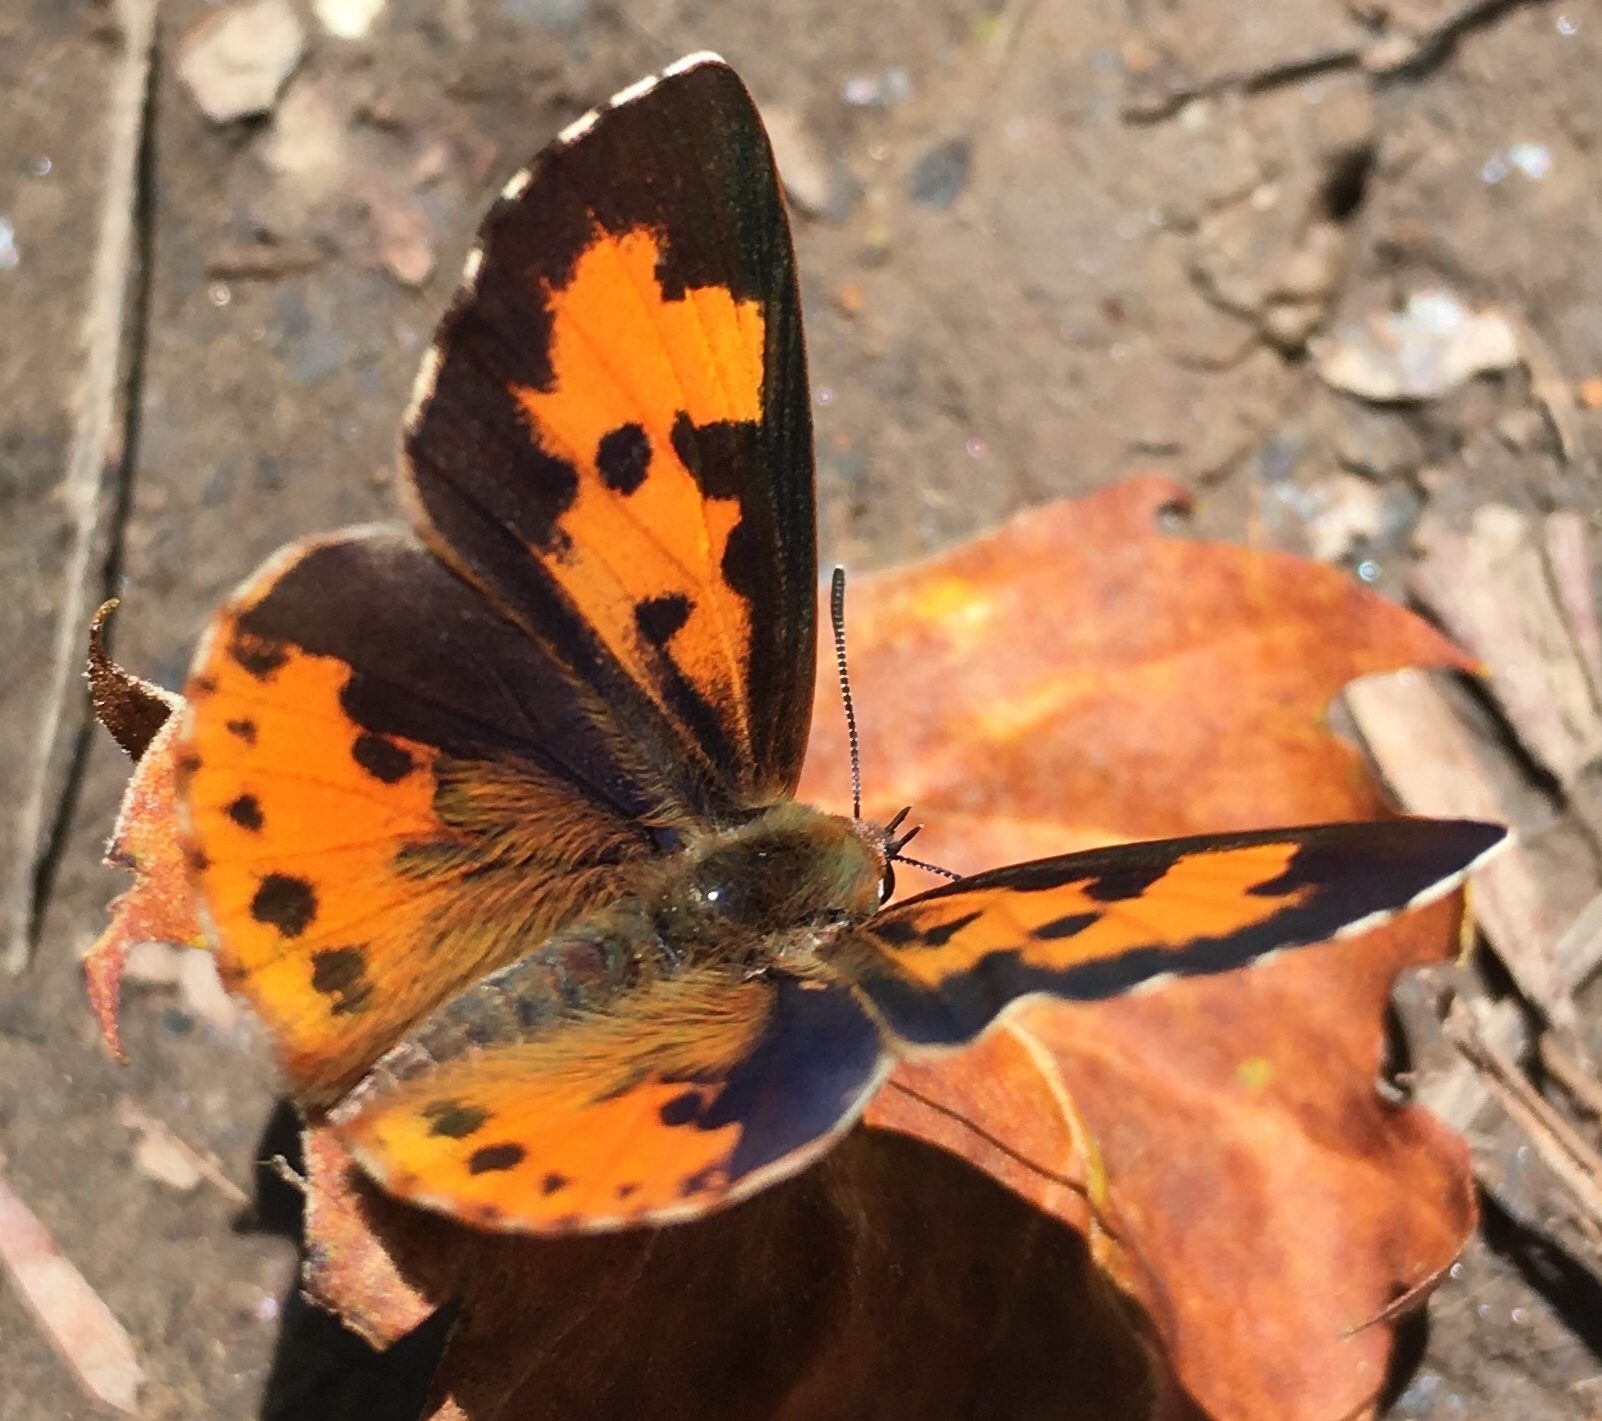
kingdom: Animalia
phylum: Arthropoda
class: Insecta
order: Lepidoptera
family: Lycaenidae
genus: Feniseca
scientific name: Feniseca tarquinius
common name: Harvester
